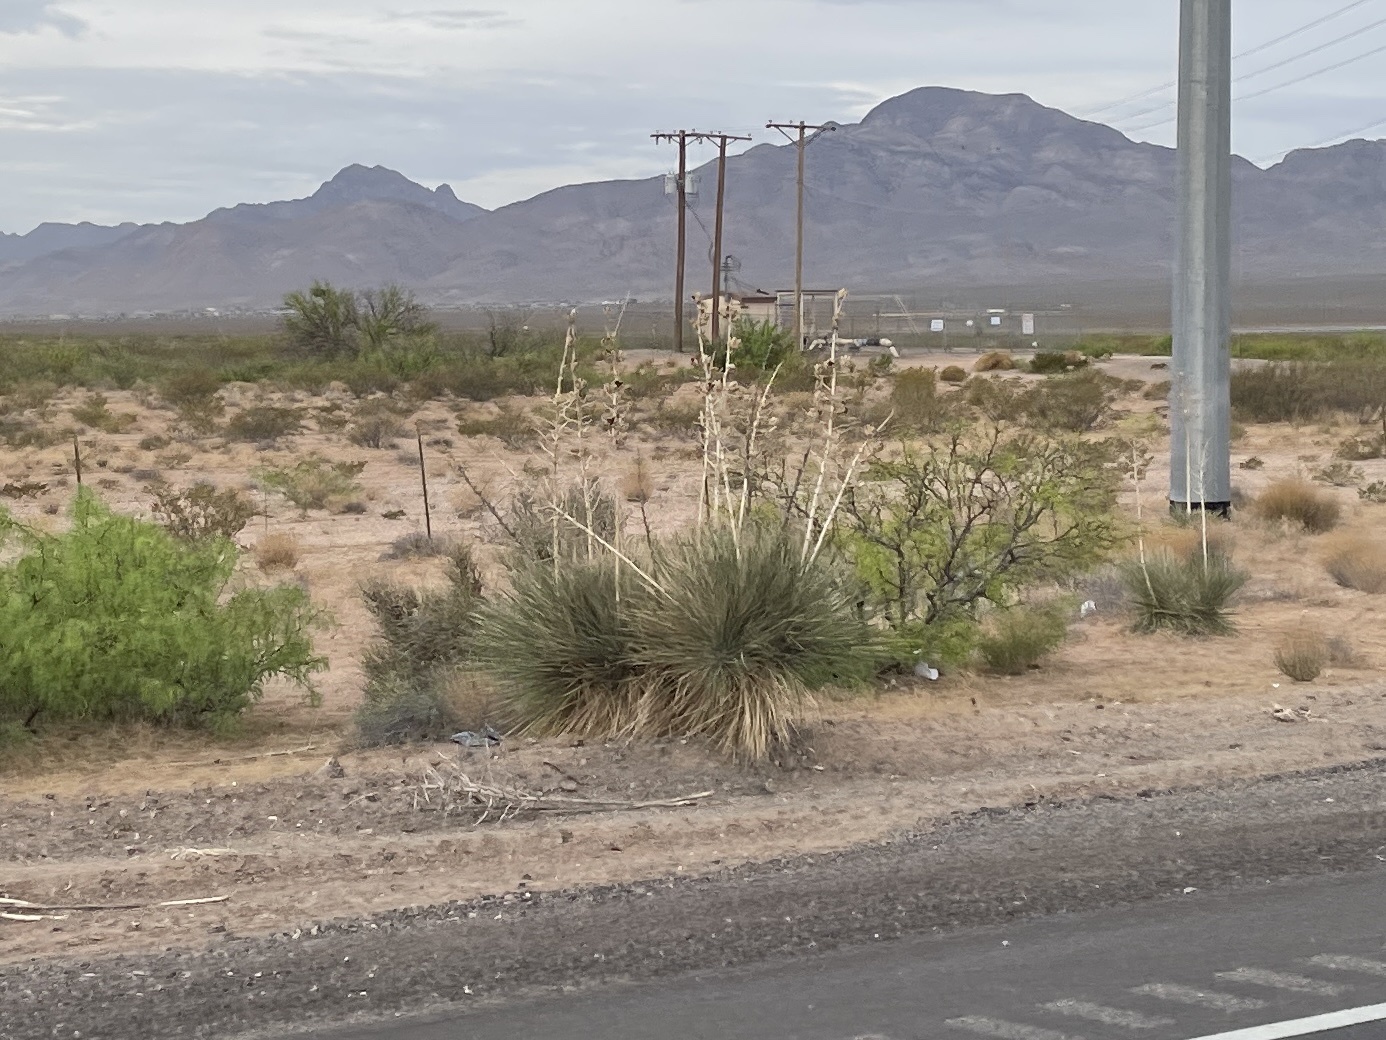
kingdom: Plantae
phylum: Tracheophyta
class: Liliopsida
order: Asparagales
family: Asparagaceae
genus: Yucca
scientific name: Yucca elata
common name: Palmella
